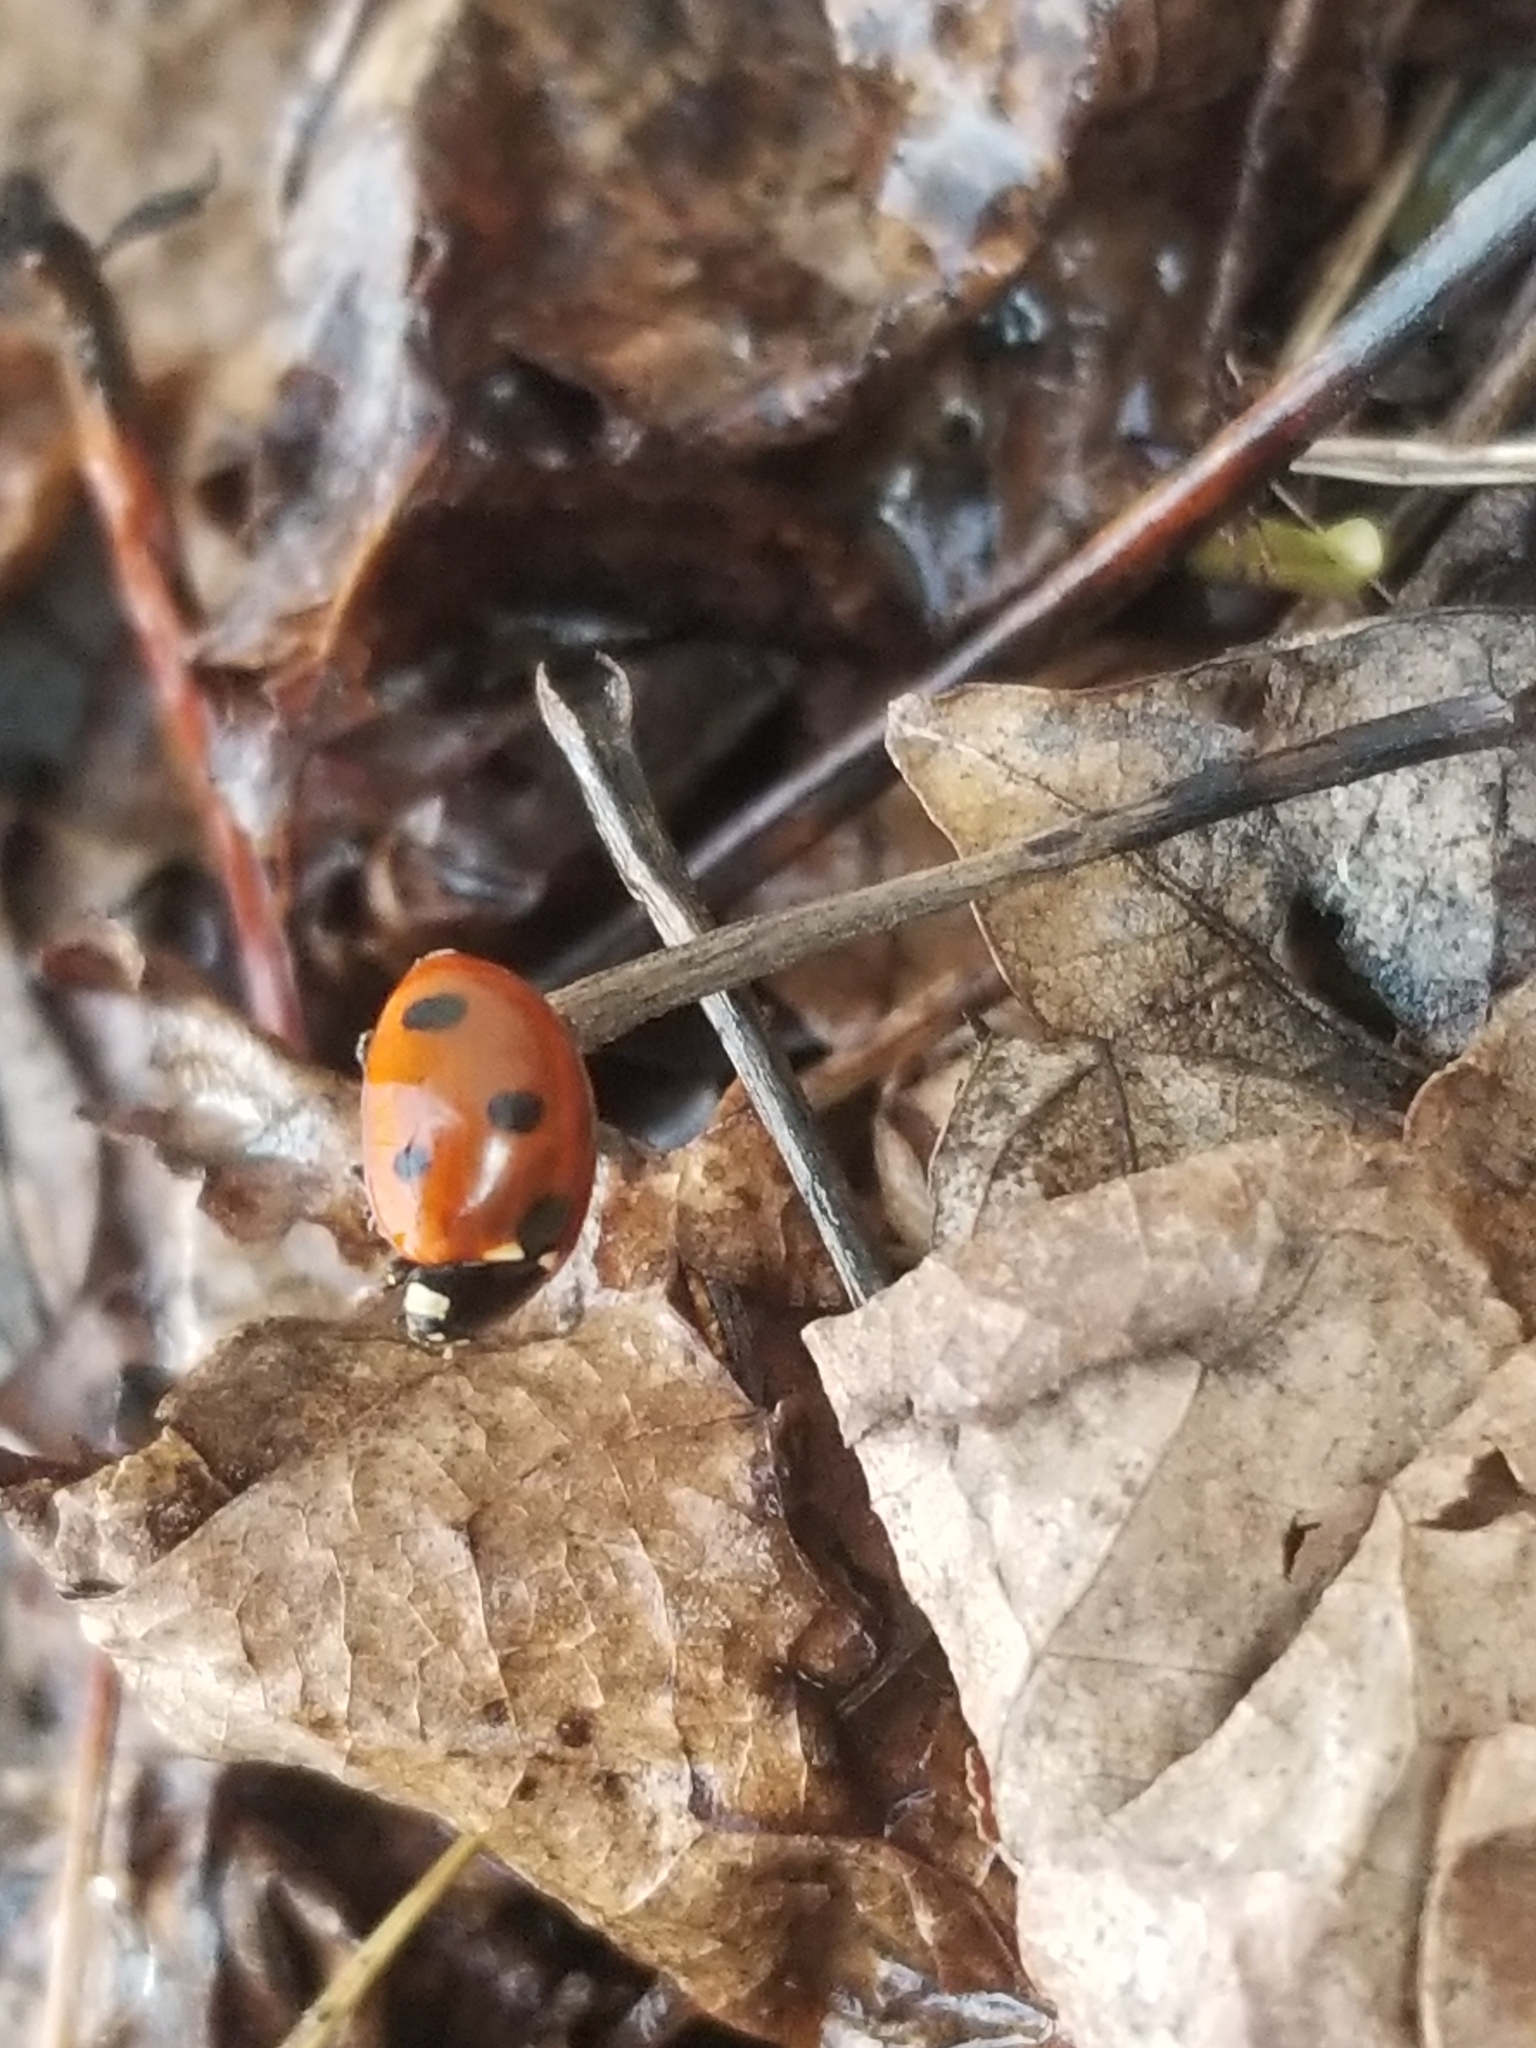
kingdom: Animalia
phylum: Arthropoda
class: Insecta
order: Coleoptera
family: Coccinellidae
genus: Coccinella
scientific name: Coccinella septempunctata
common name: Sevenspotted lady beetle
